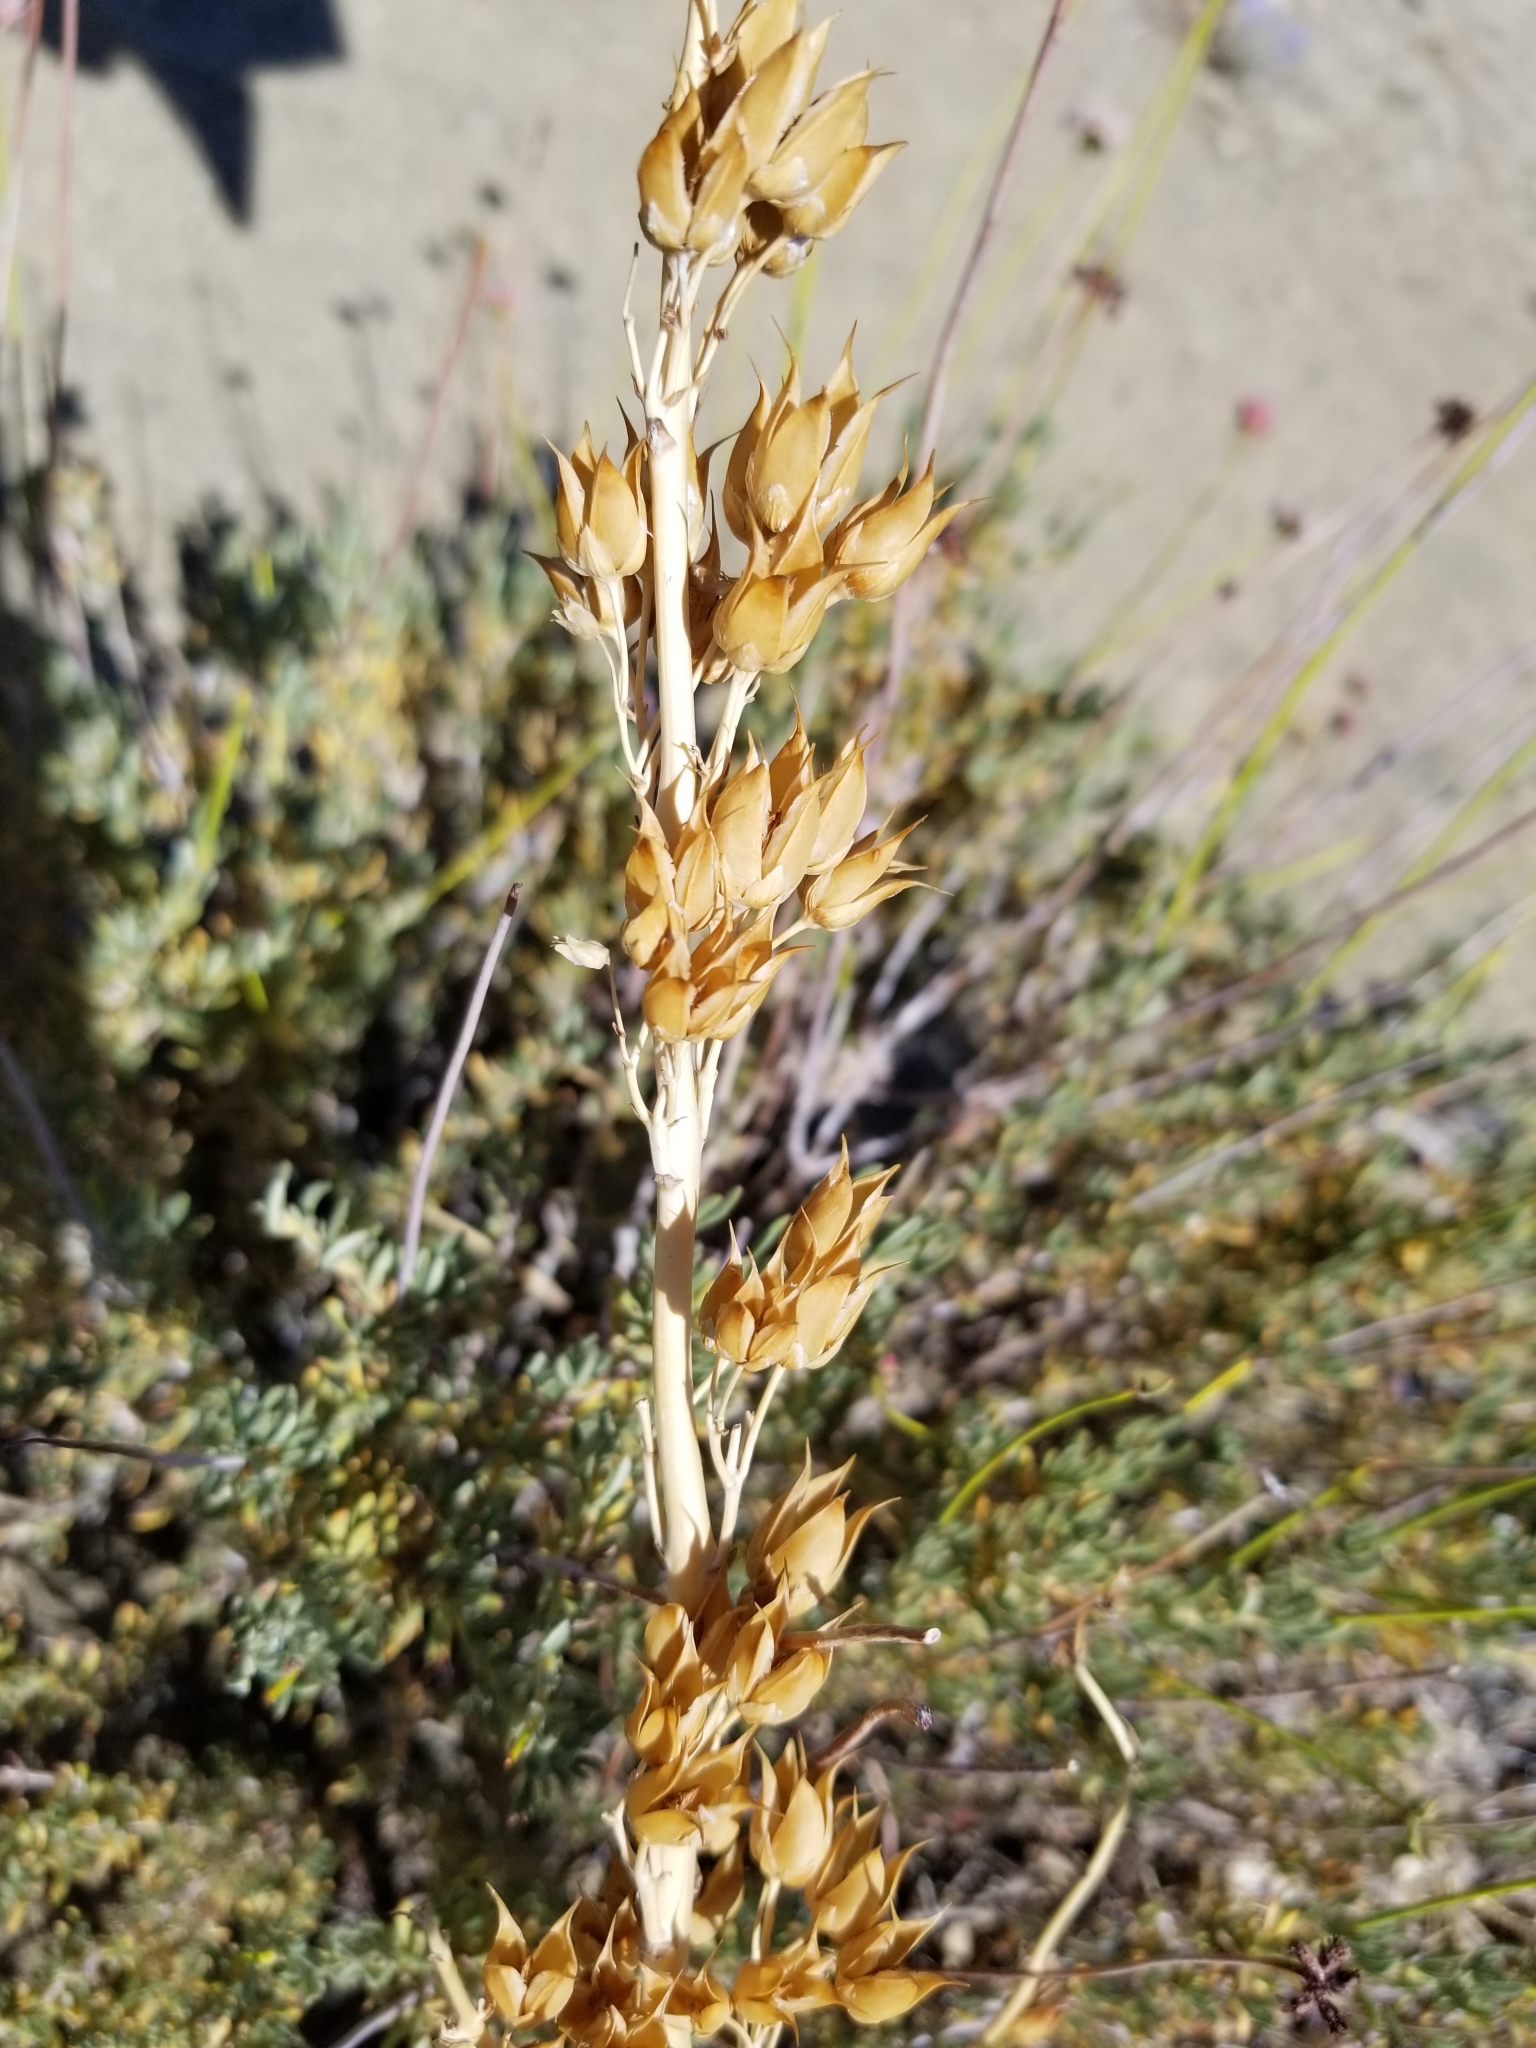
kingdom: Plantae
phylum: Tracheophyta
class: Magnoliopsida
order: Lamiales
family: Plantaginaceae
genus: Penstemon
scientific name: Penstemon centranthifolius
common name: Scarlet bugler
